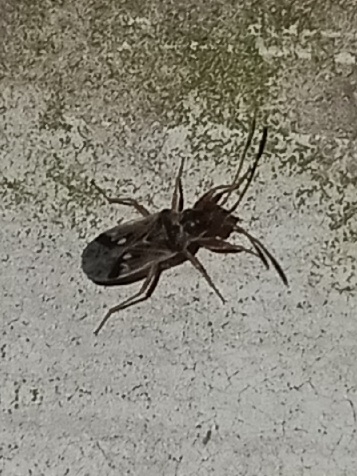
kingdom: Animalia
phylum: Arthropoda
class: Insecta
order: Hemiptera
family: Rhyparochromidae
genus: Pseudopachybrachius
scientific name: Pseudopachybrachius vinctus
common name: Dirt-colored seed bug
